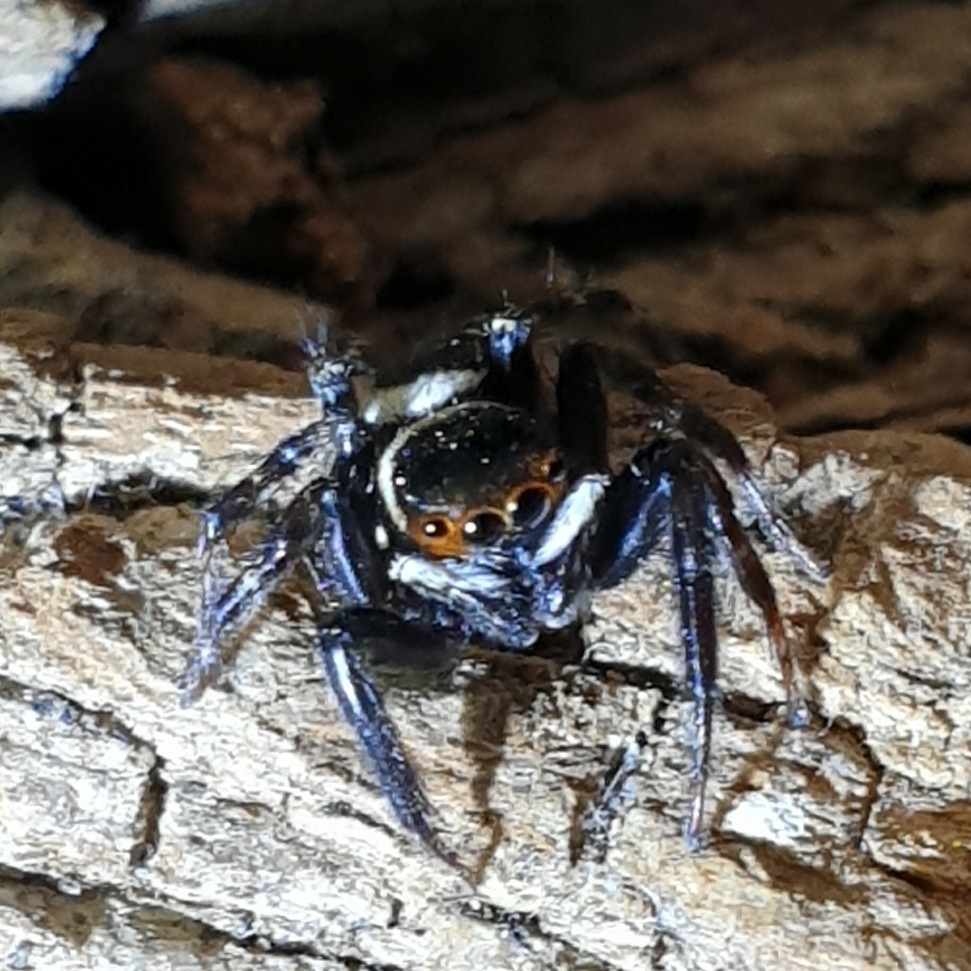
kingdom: Animalia
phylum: Arthropoda
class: Arachnida
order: Araneae
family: Salticidae
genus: Hasarius
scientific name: Hasarius adansoni
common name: Jumping spider
